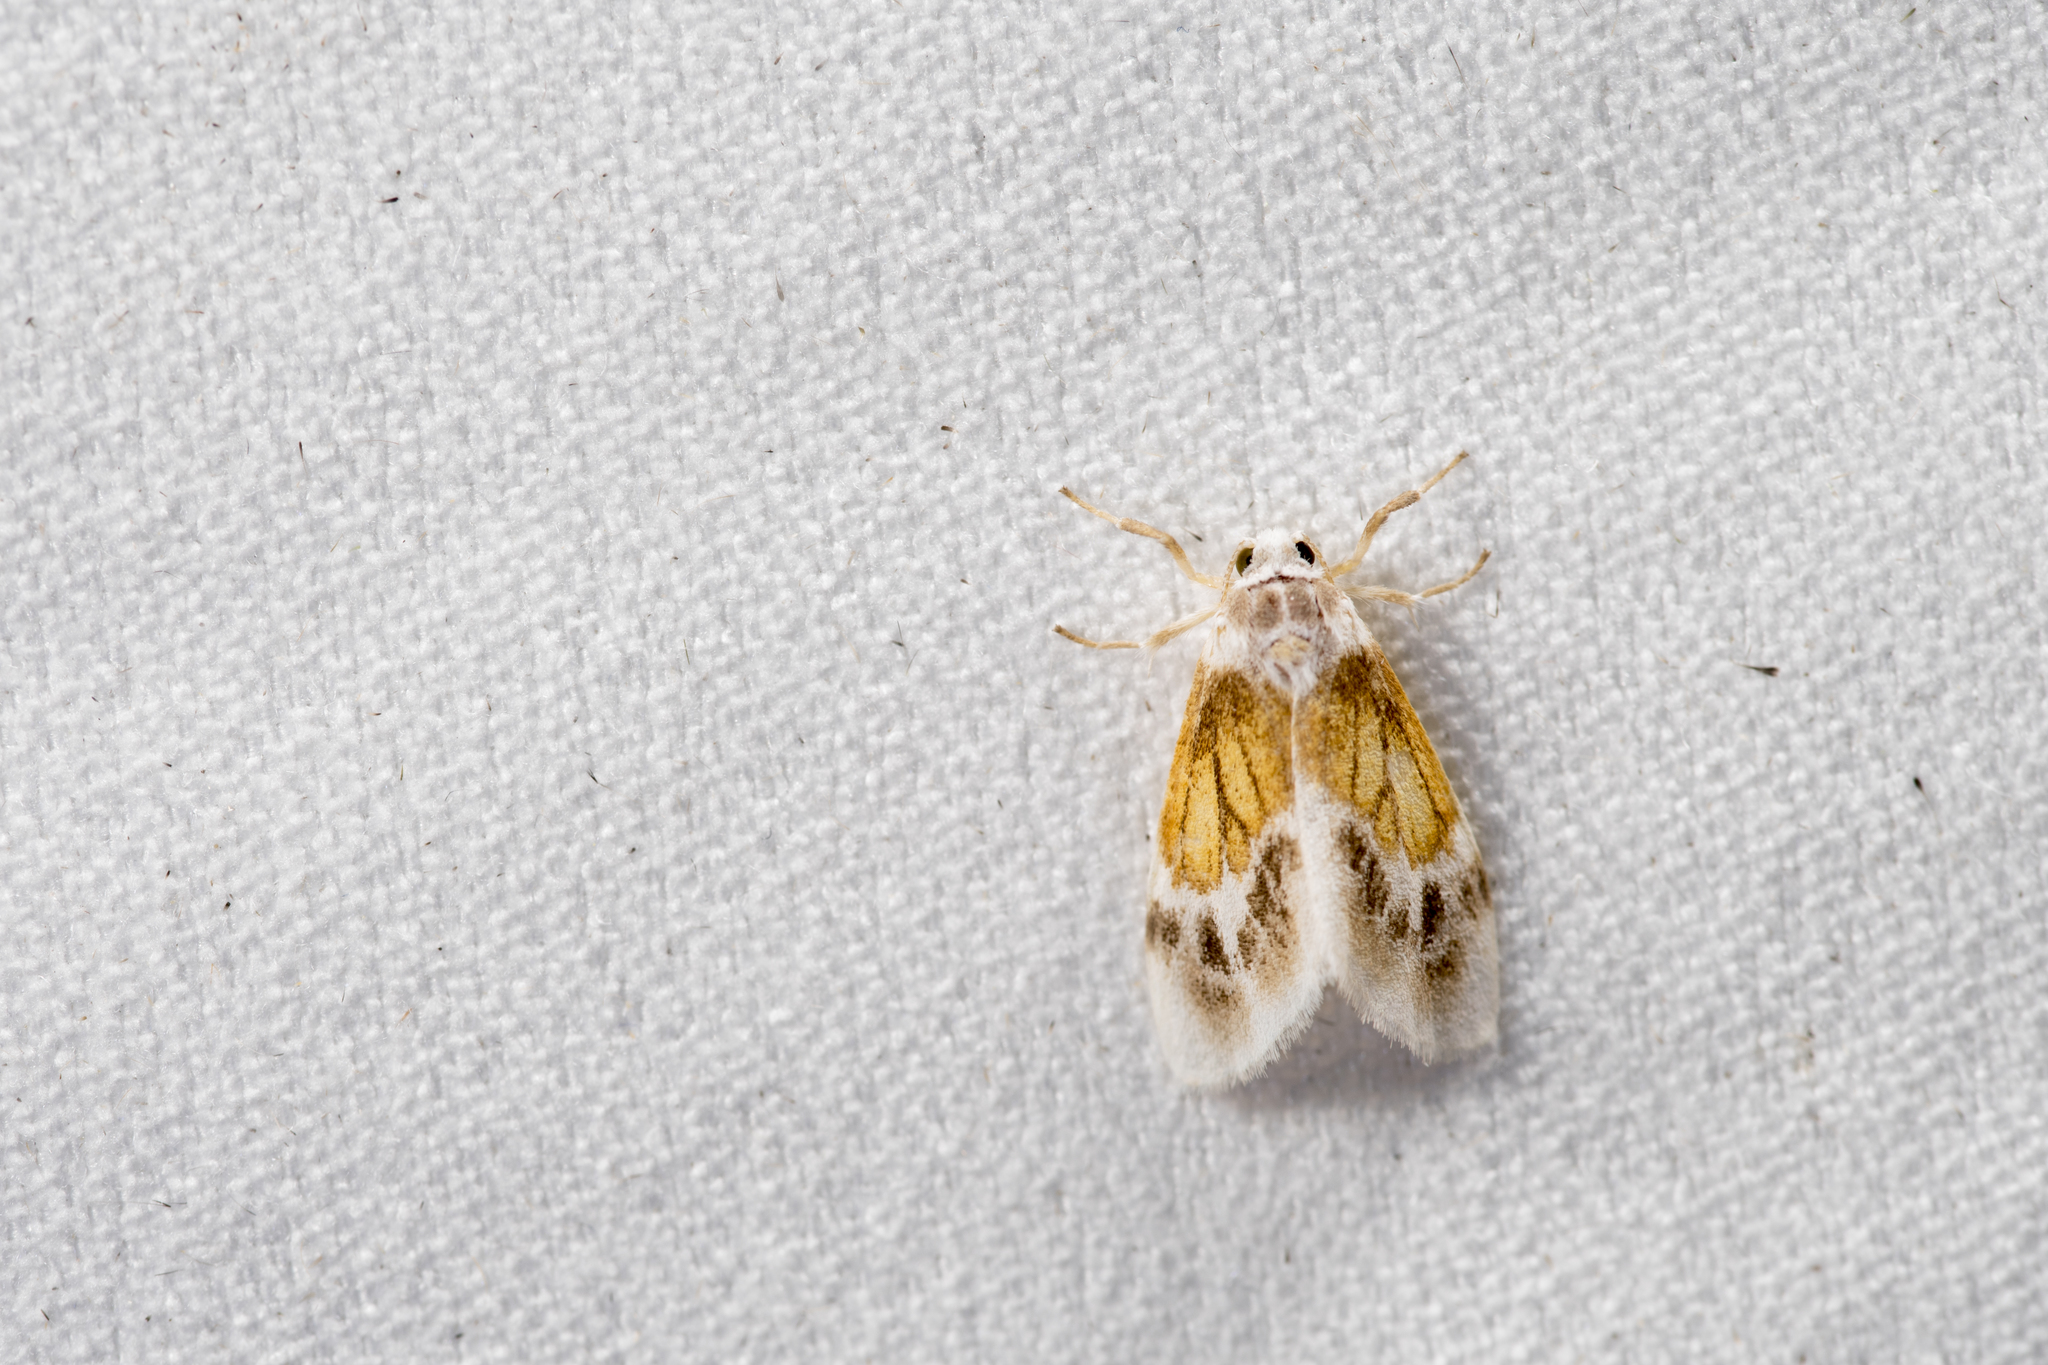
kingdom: Animalia
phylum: Arthropoda
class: Insecta
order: Lepidoptera
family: Erebidae
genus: Ovipennis
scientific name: Ovipennis semilutea
